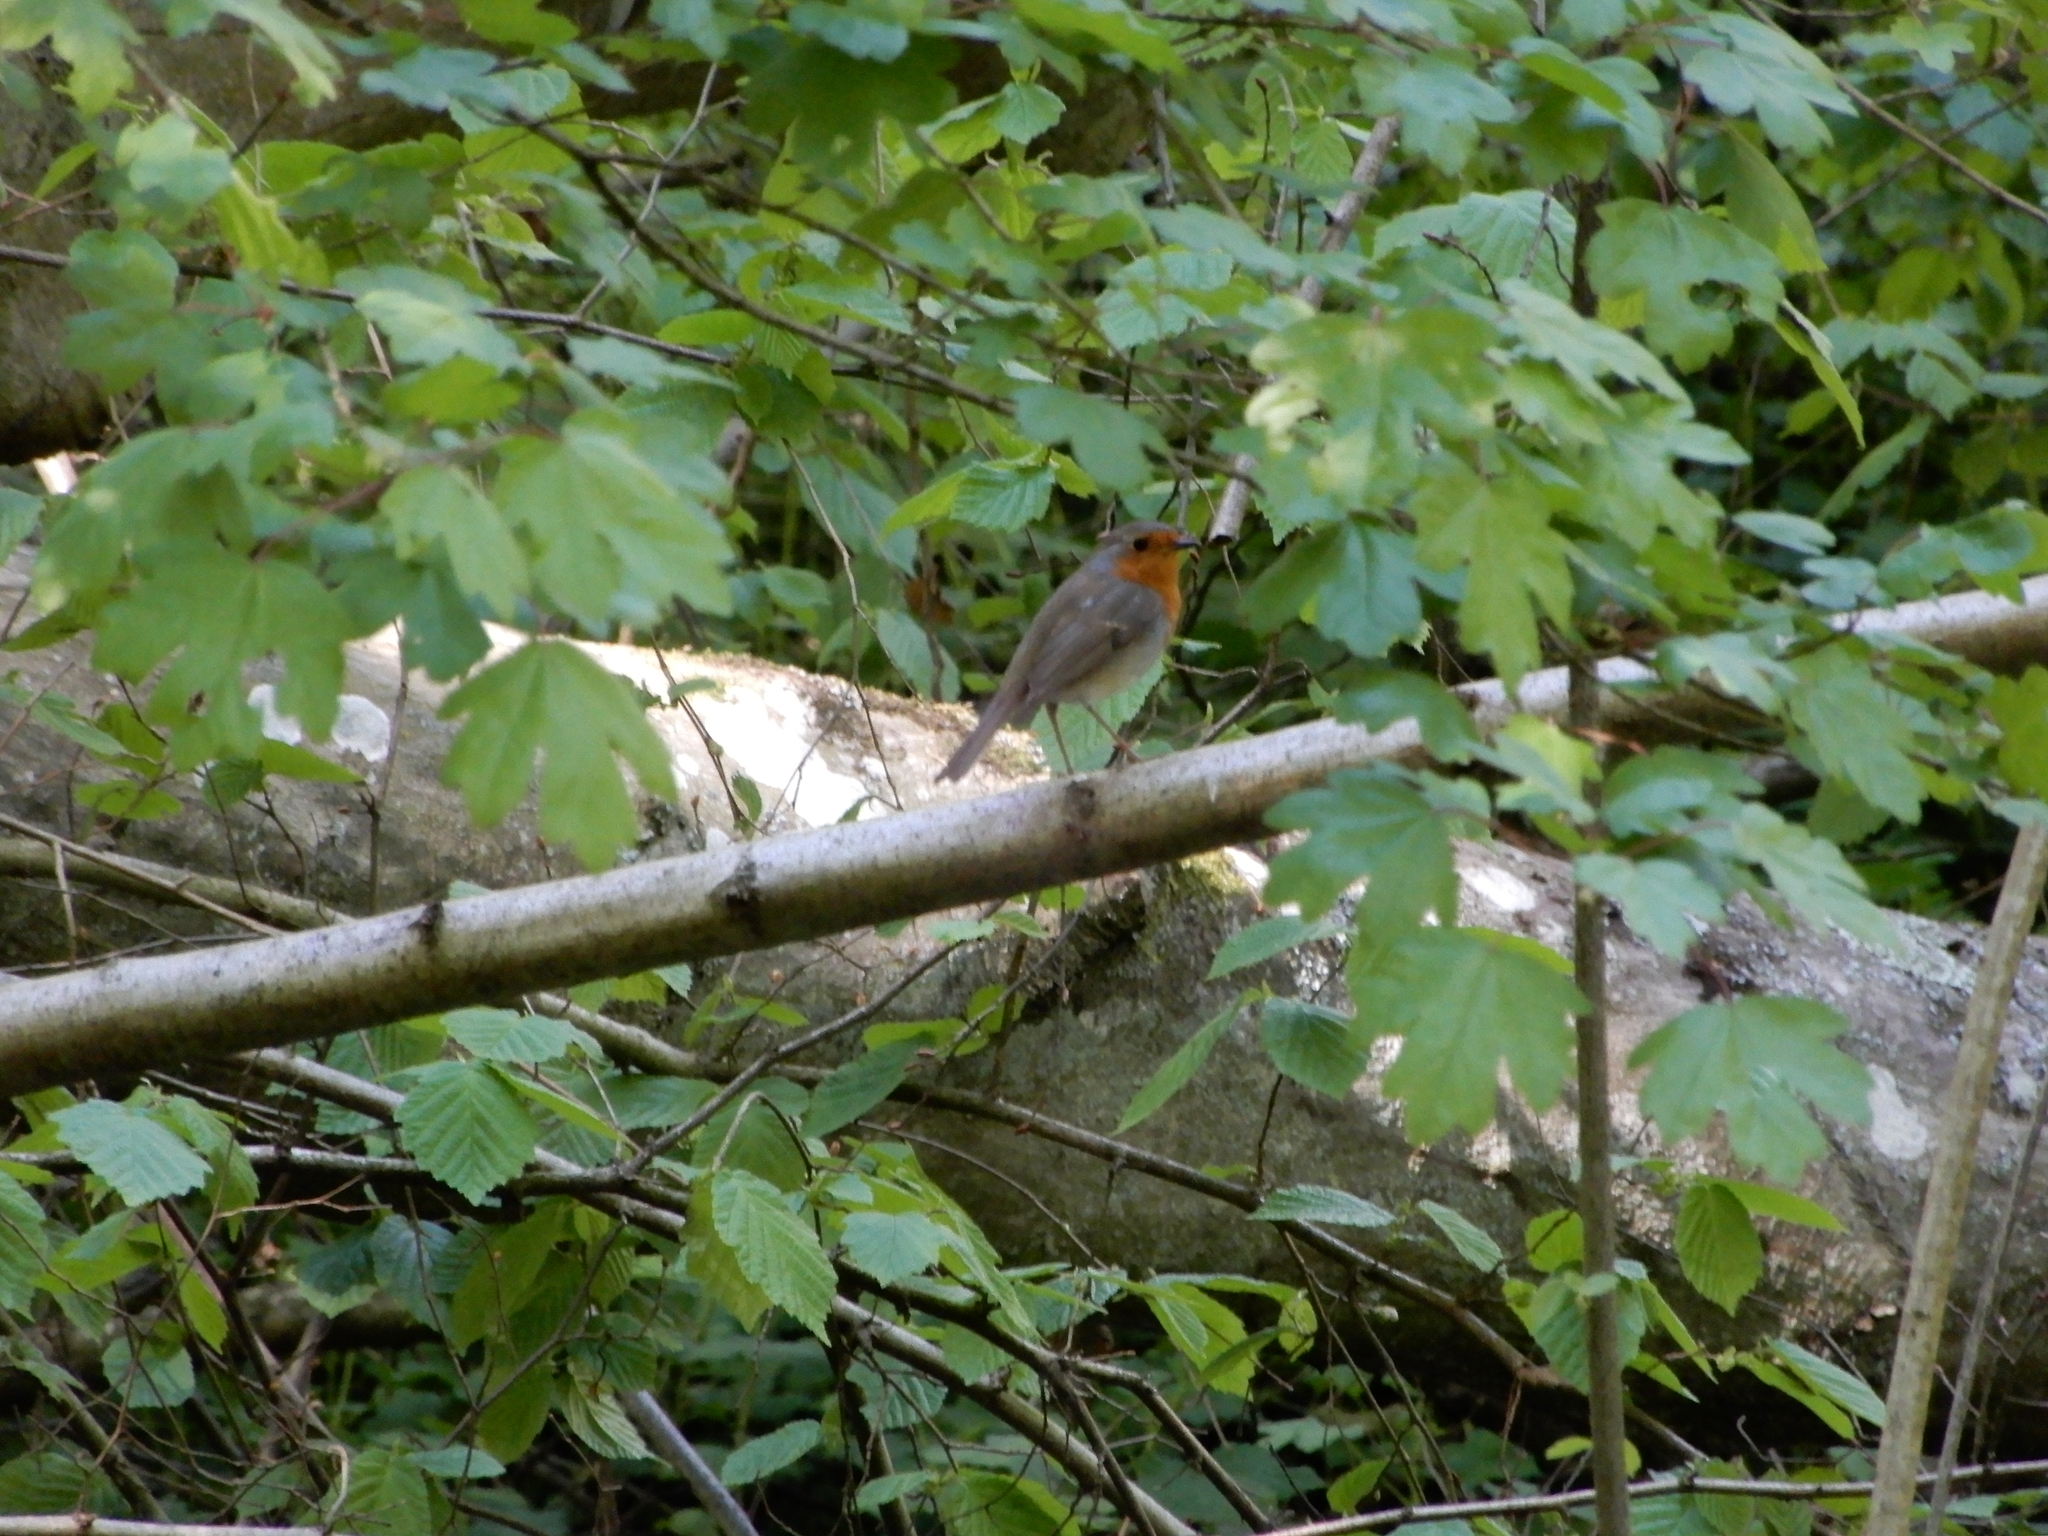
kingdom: Animalia
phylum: Chordata
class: Aves
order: Passeriformes
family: Muscicapidae
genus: Erithacus
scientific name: Erithacus rubecula
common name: European robin
